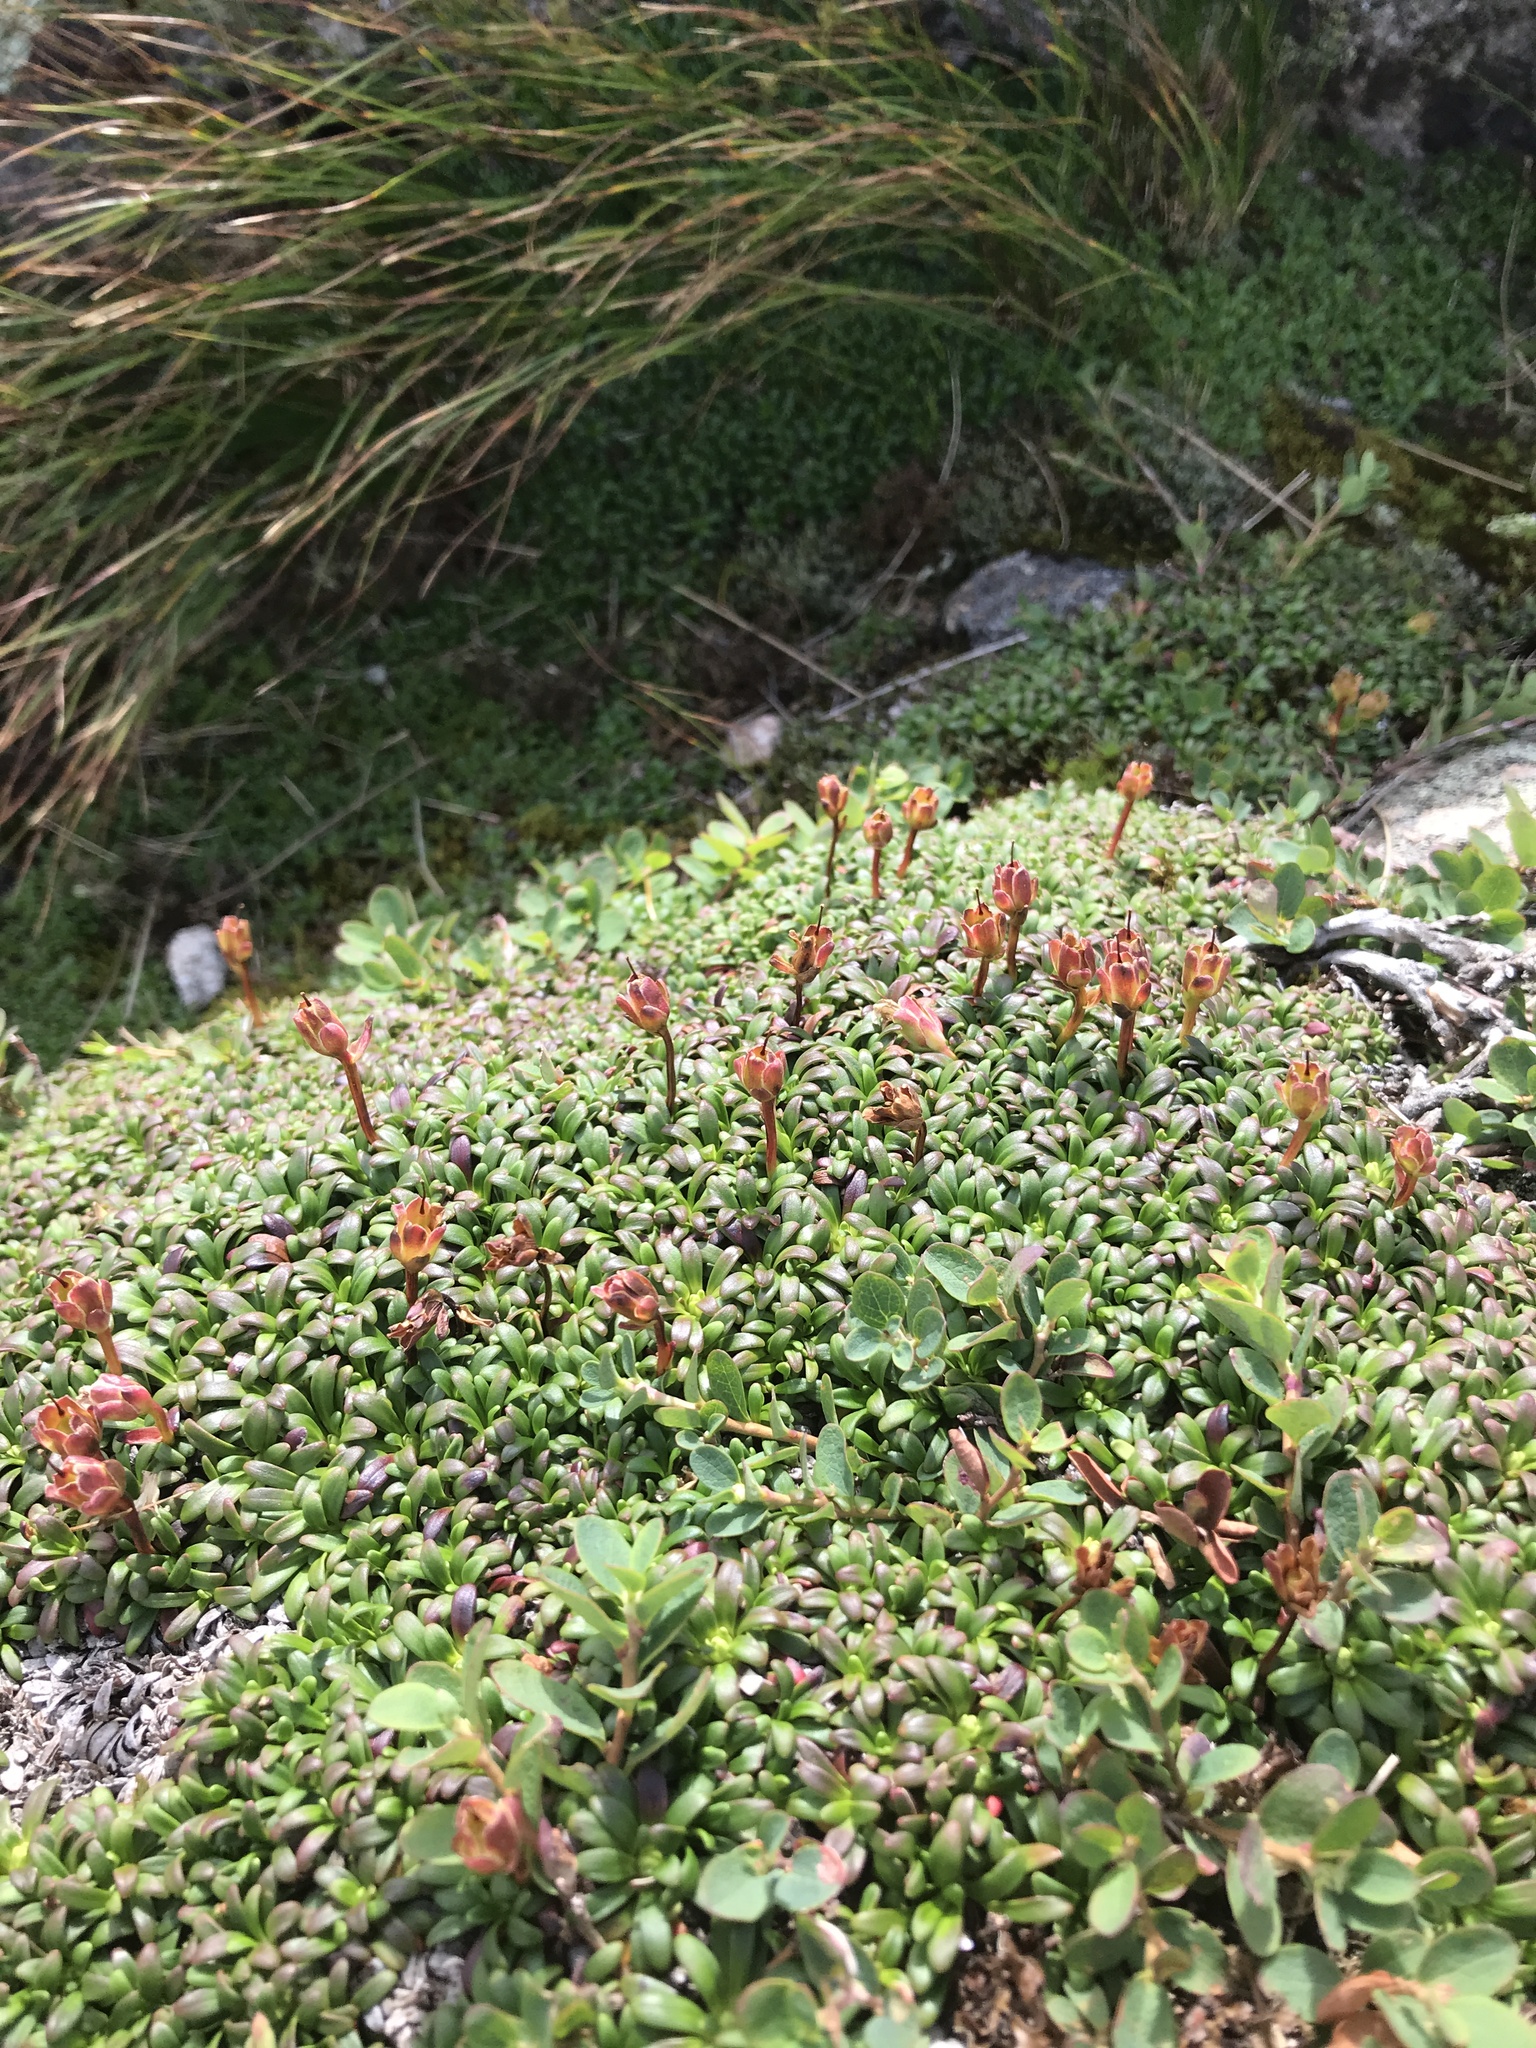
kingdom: Plantae
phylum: Tracheophyta
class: Magnoliopsida
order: Ericales
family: Diapensiaceae
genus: Diapensia
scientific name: Diapensia lapponica
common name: Diapensia
